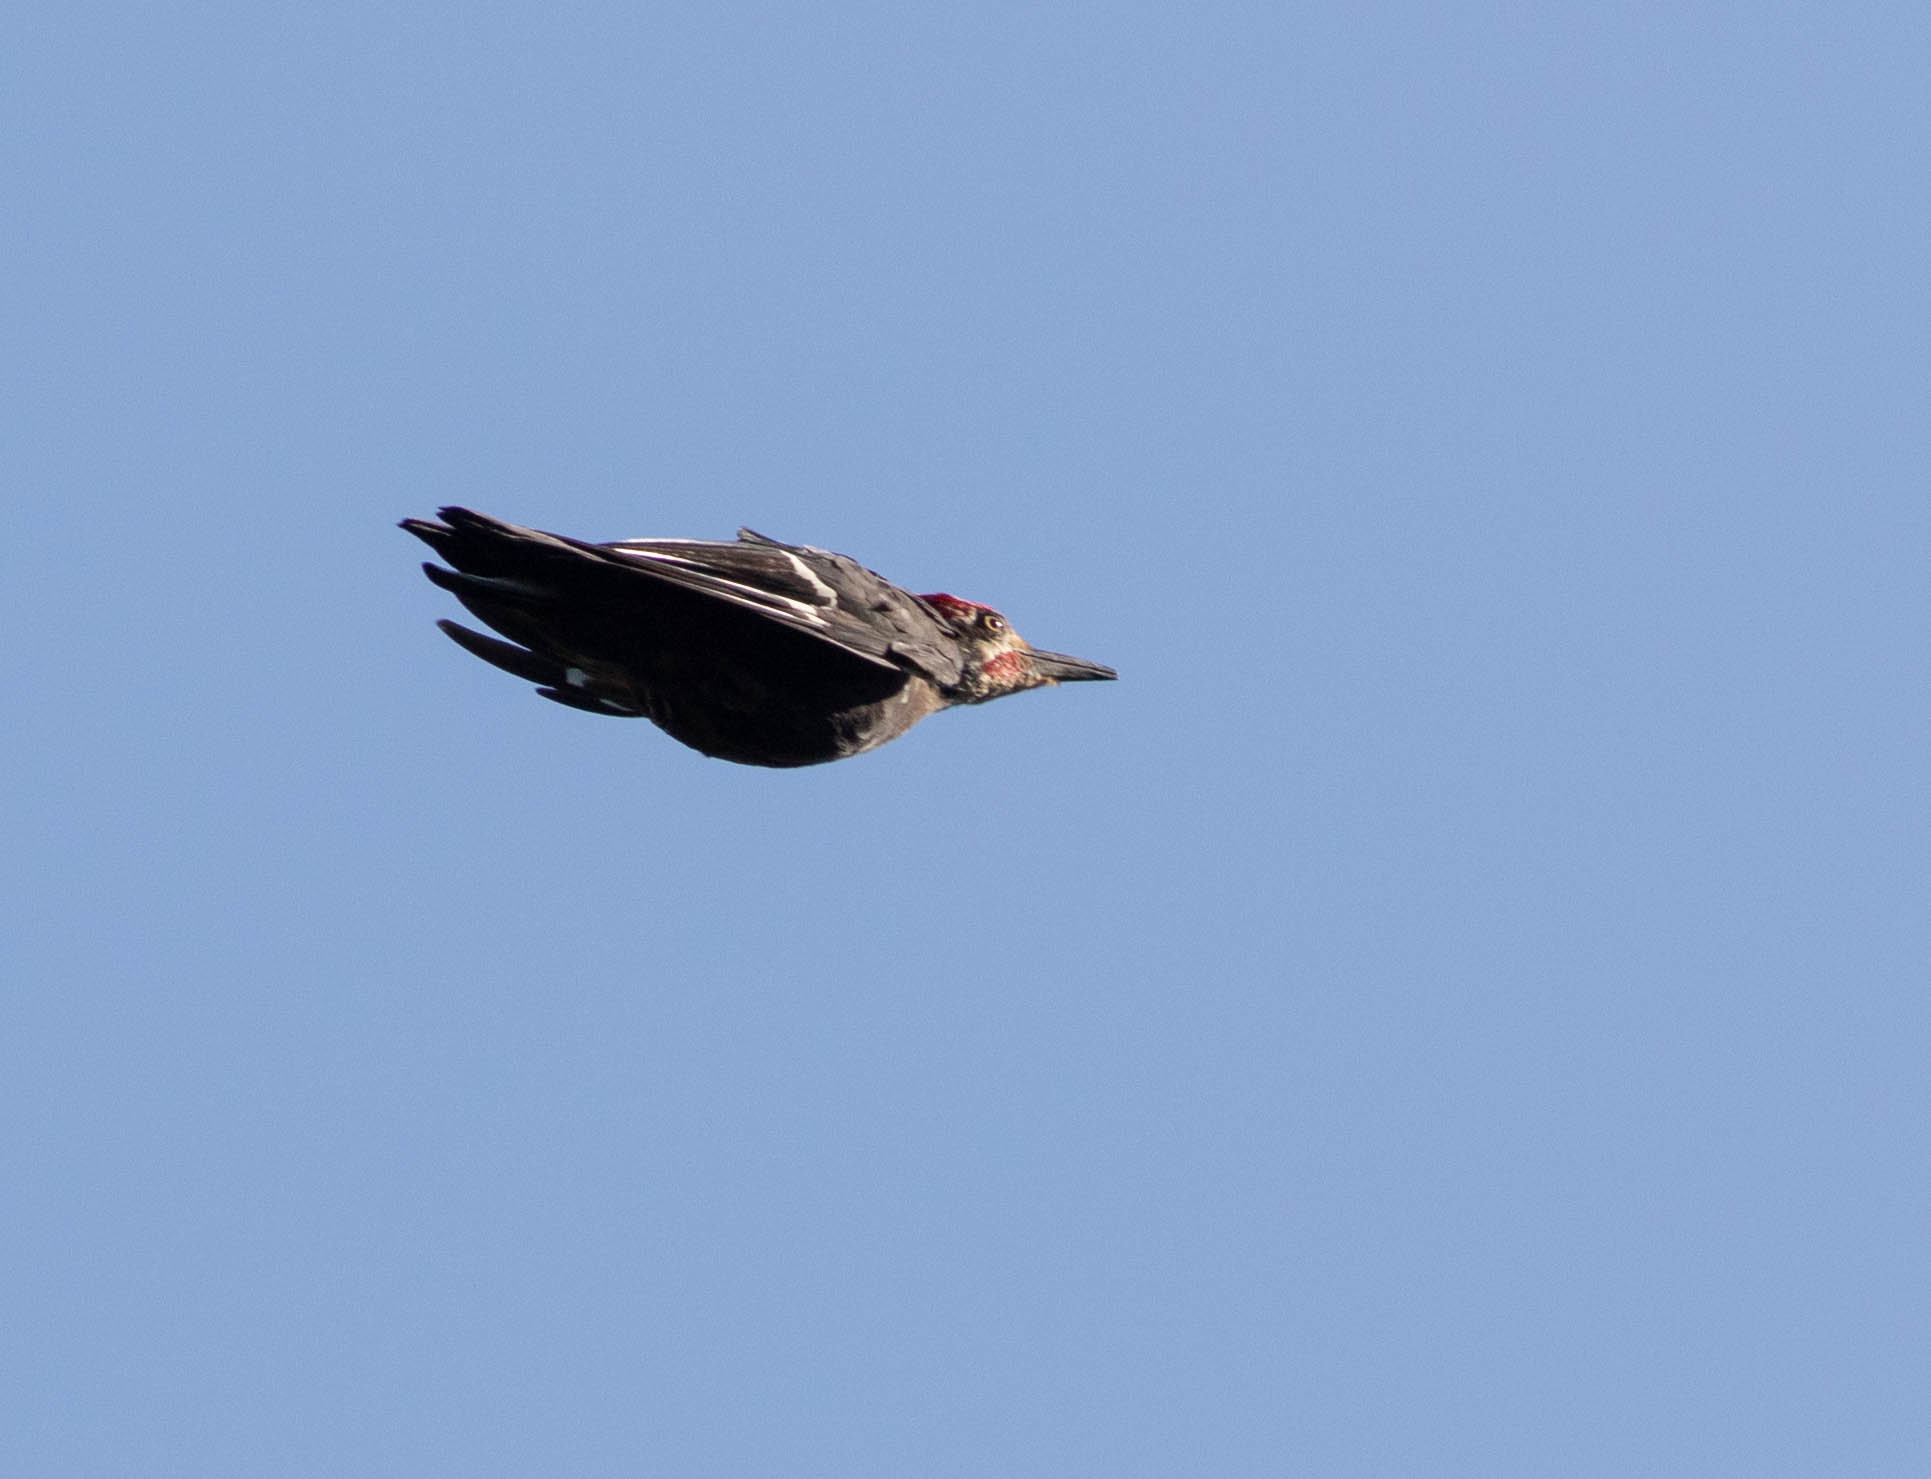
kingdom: Animalia
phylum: Chordata
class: Aves
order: Piciformes
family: Picidae
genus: Dryocopus
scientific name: Dryocopus pileatus
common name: Pileated woodpecker
